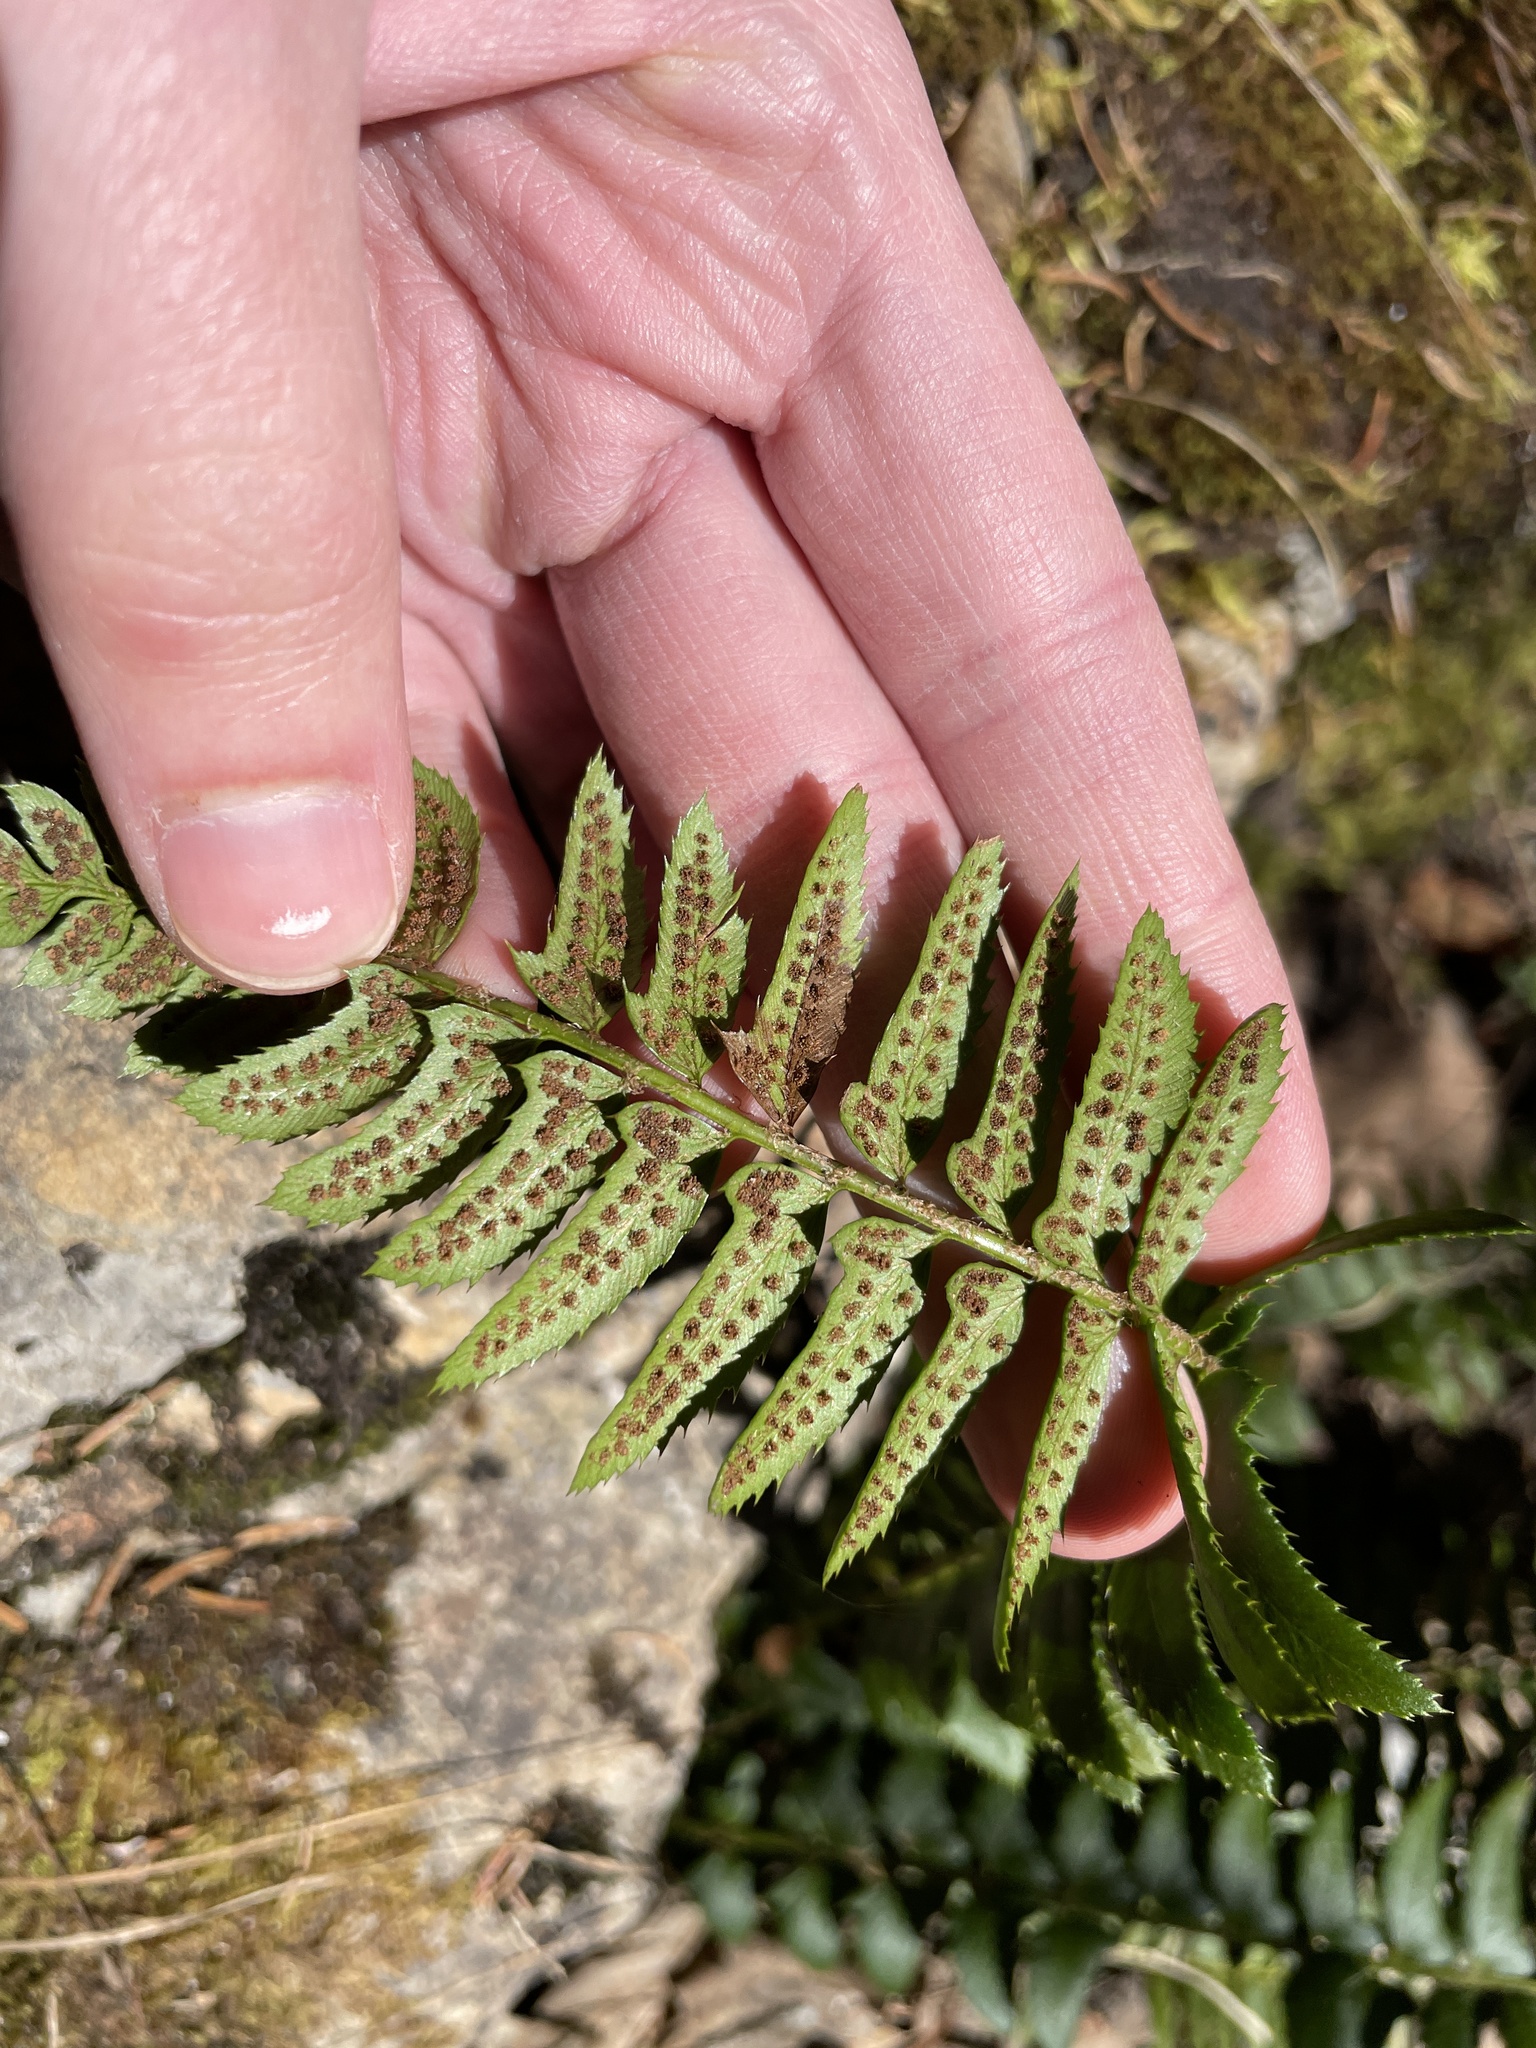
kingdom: Plantae
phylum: Tracheophyta
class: Polypodiopsida
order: Polypodiales
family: Dryopteridaceae
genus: Polystichum
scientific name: Polystichum lonchitis
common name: Holly fern
